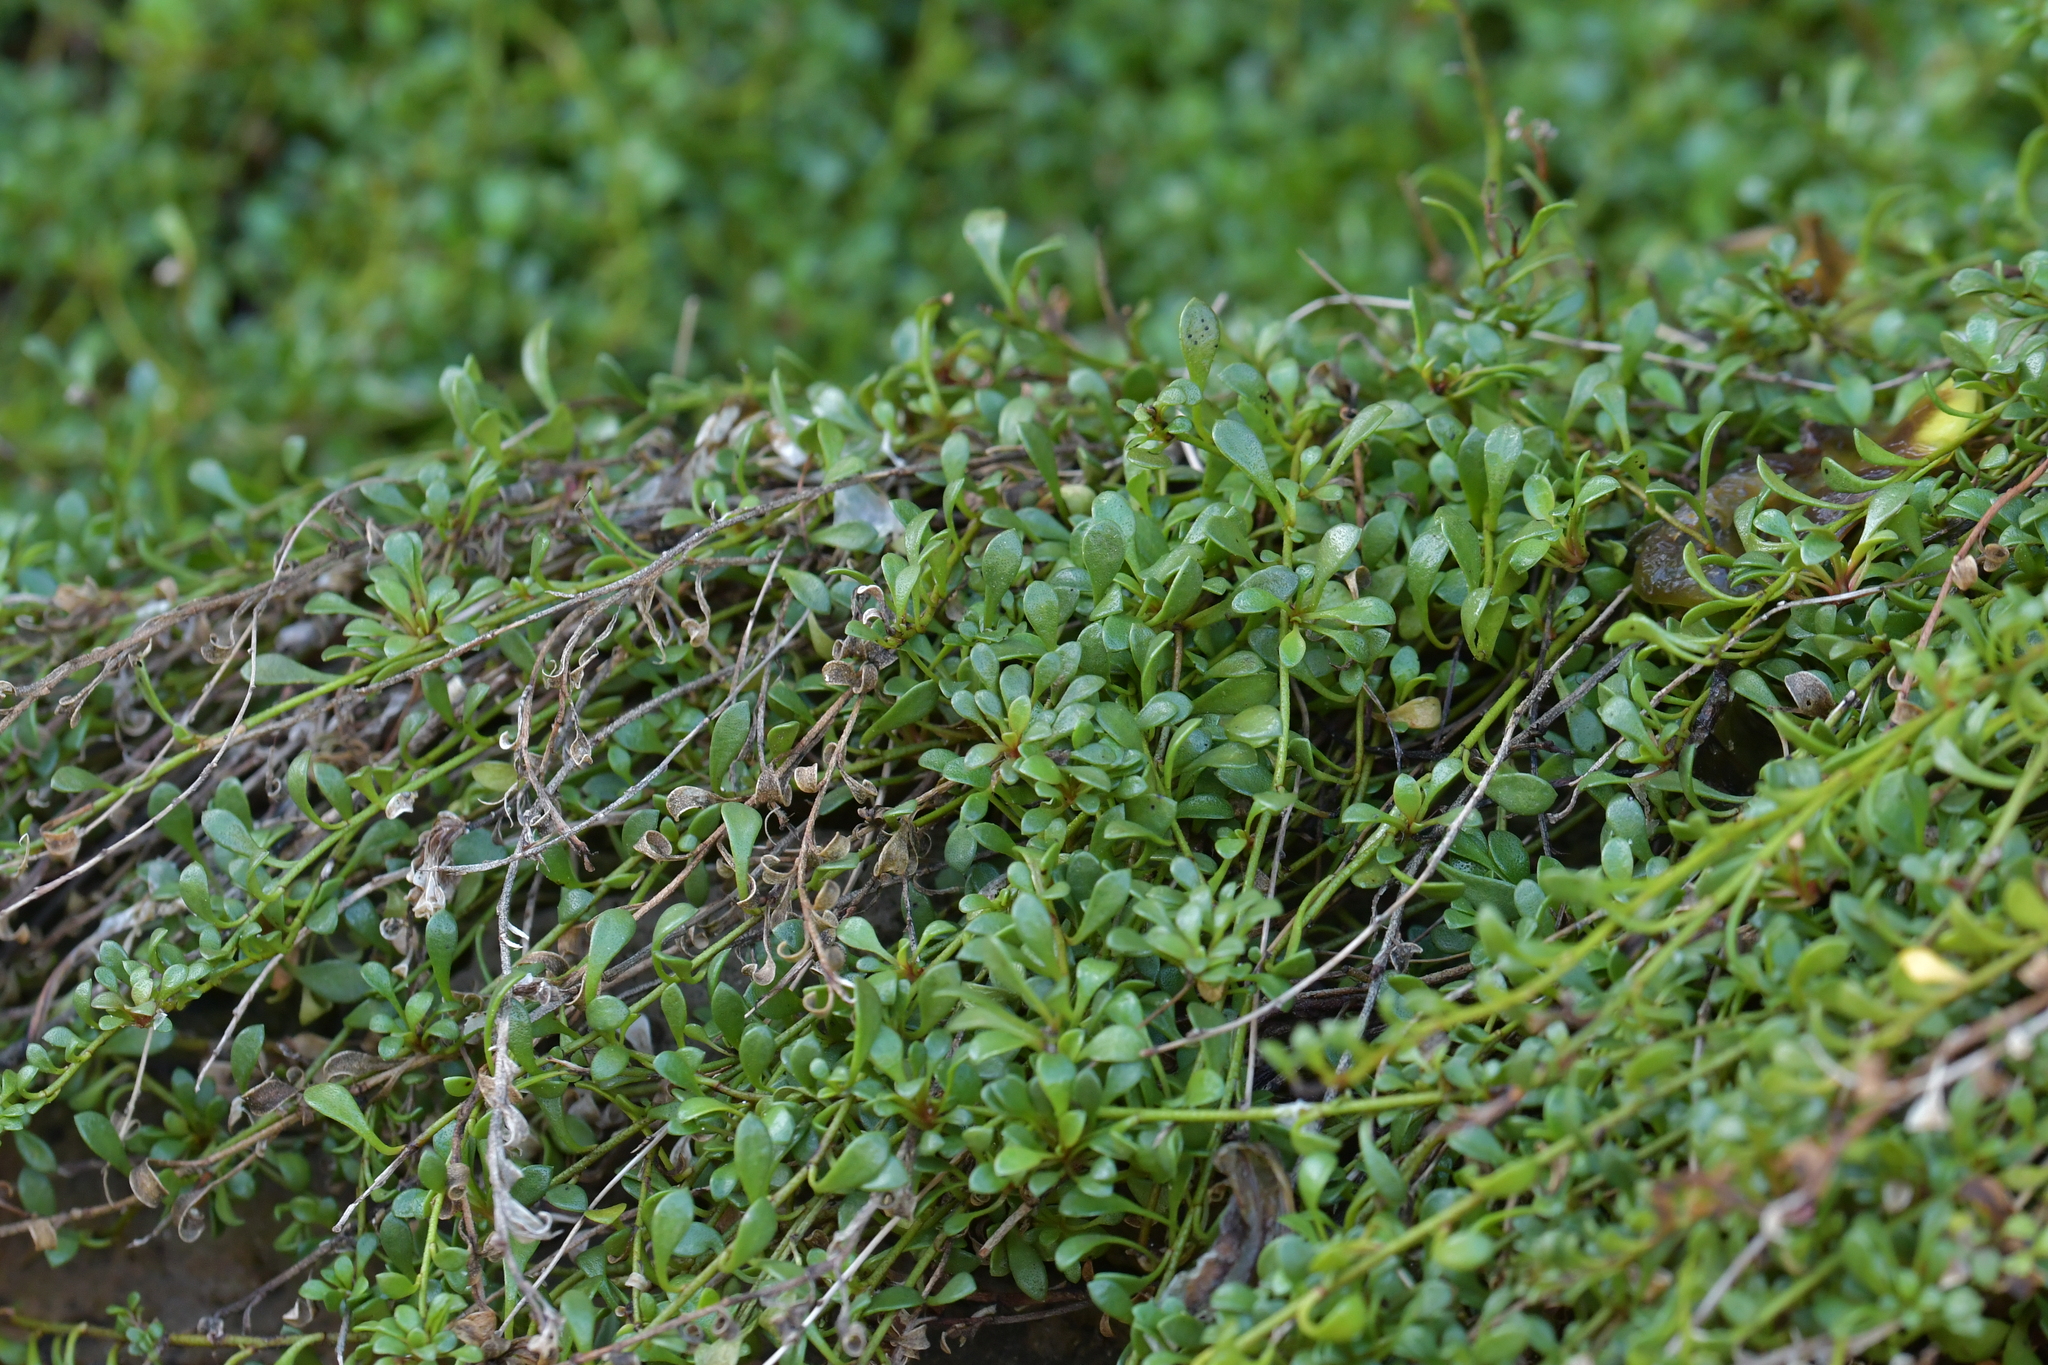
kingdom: Plantae
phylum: Tracheophyta
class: Magnoliopsida
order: Ericales
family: Primulaceae
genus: Samolus
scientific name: Samolus repens
